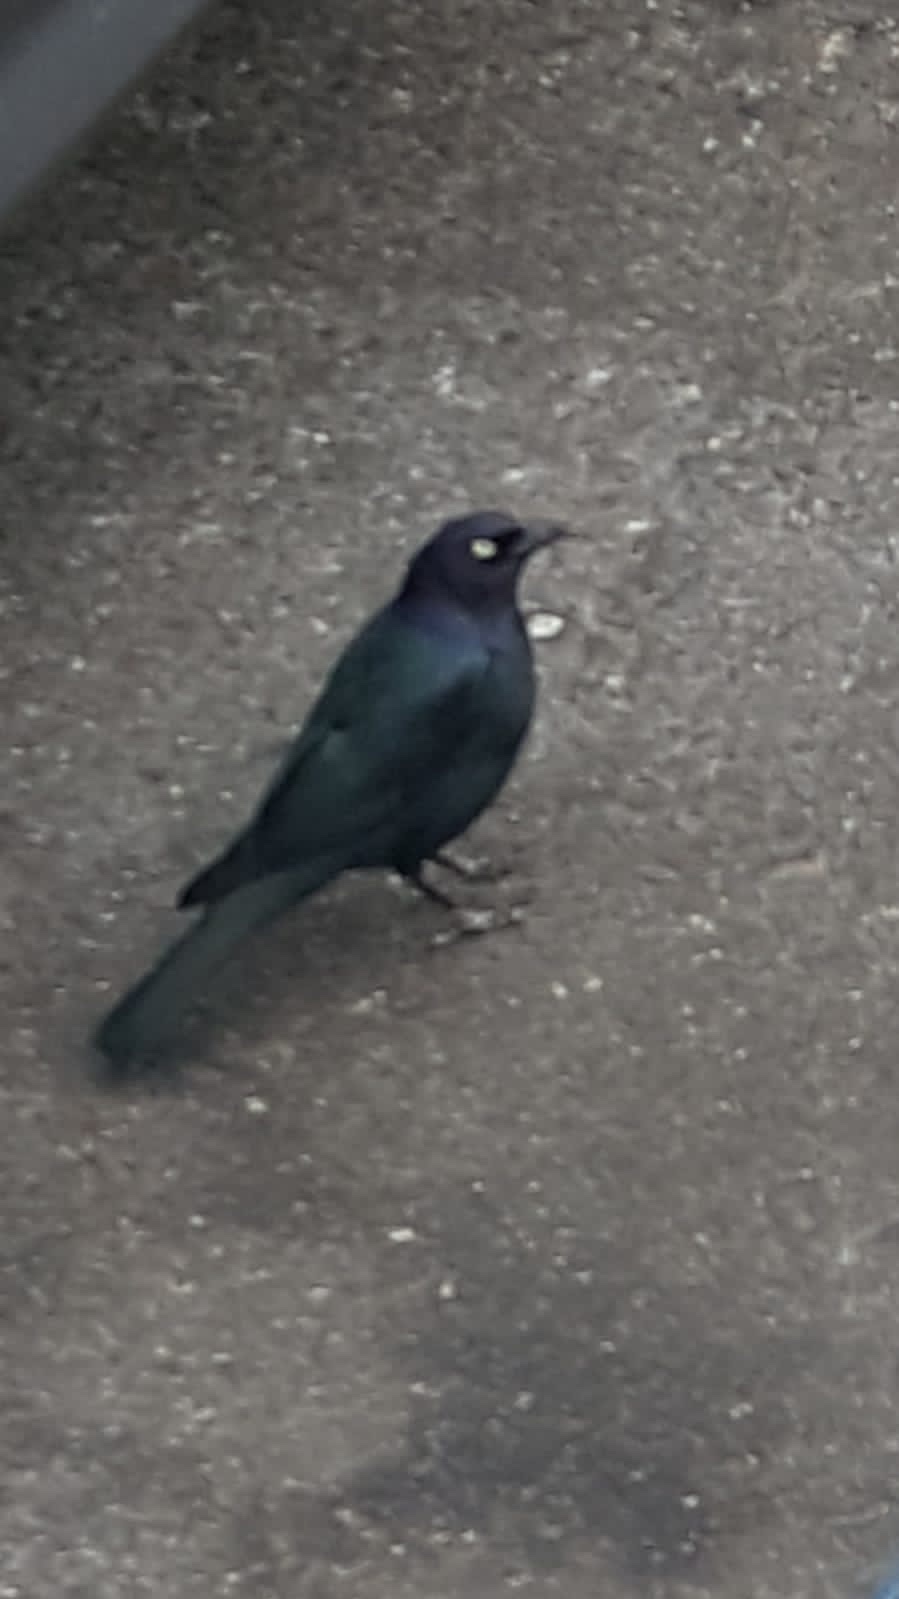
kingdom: Animalia
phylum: Chordata
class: Aves
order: Passeriformes
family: Icteridae
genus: Euphagus
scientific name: Euphagus cyanocephalus
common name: Brewer's blackbird
